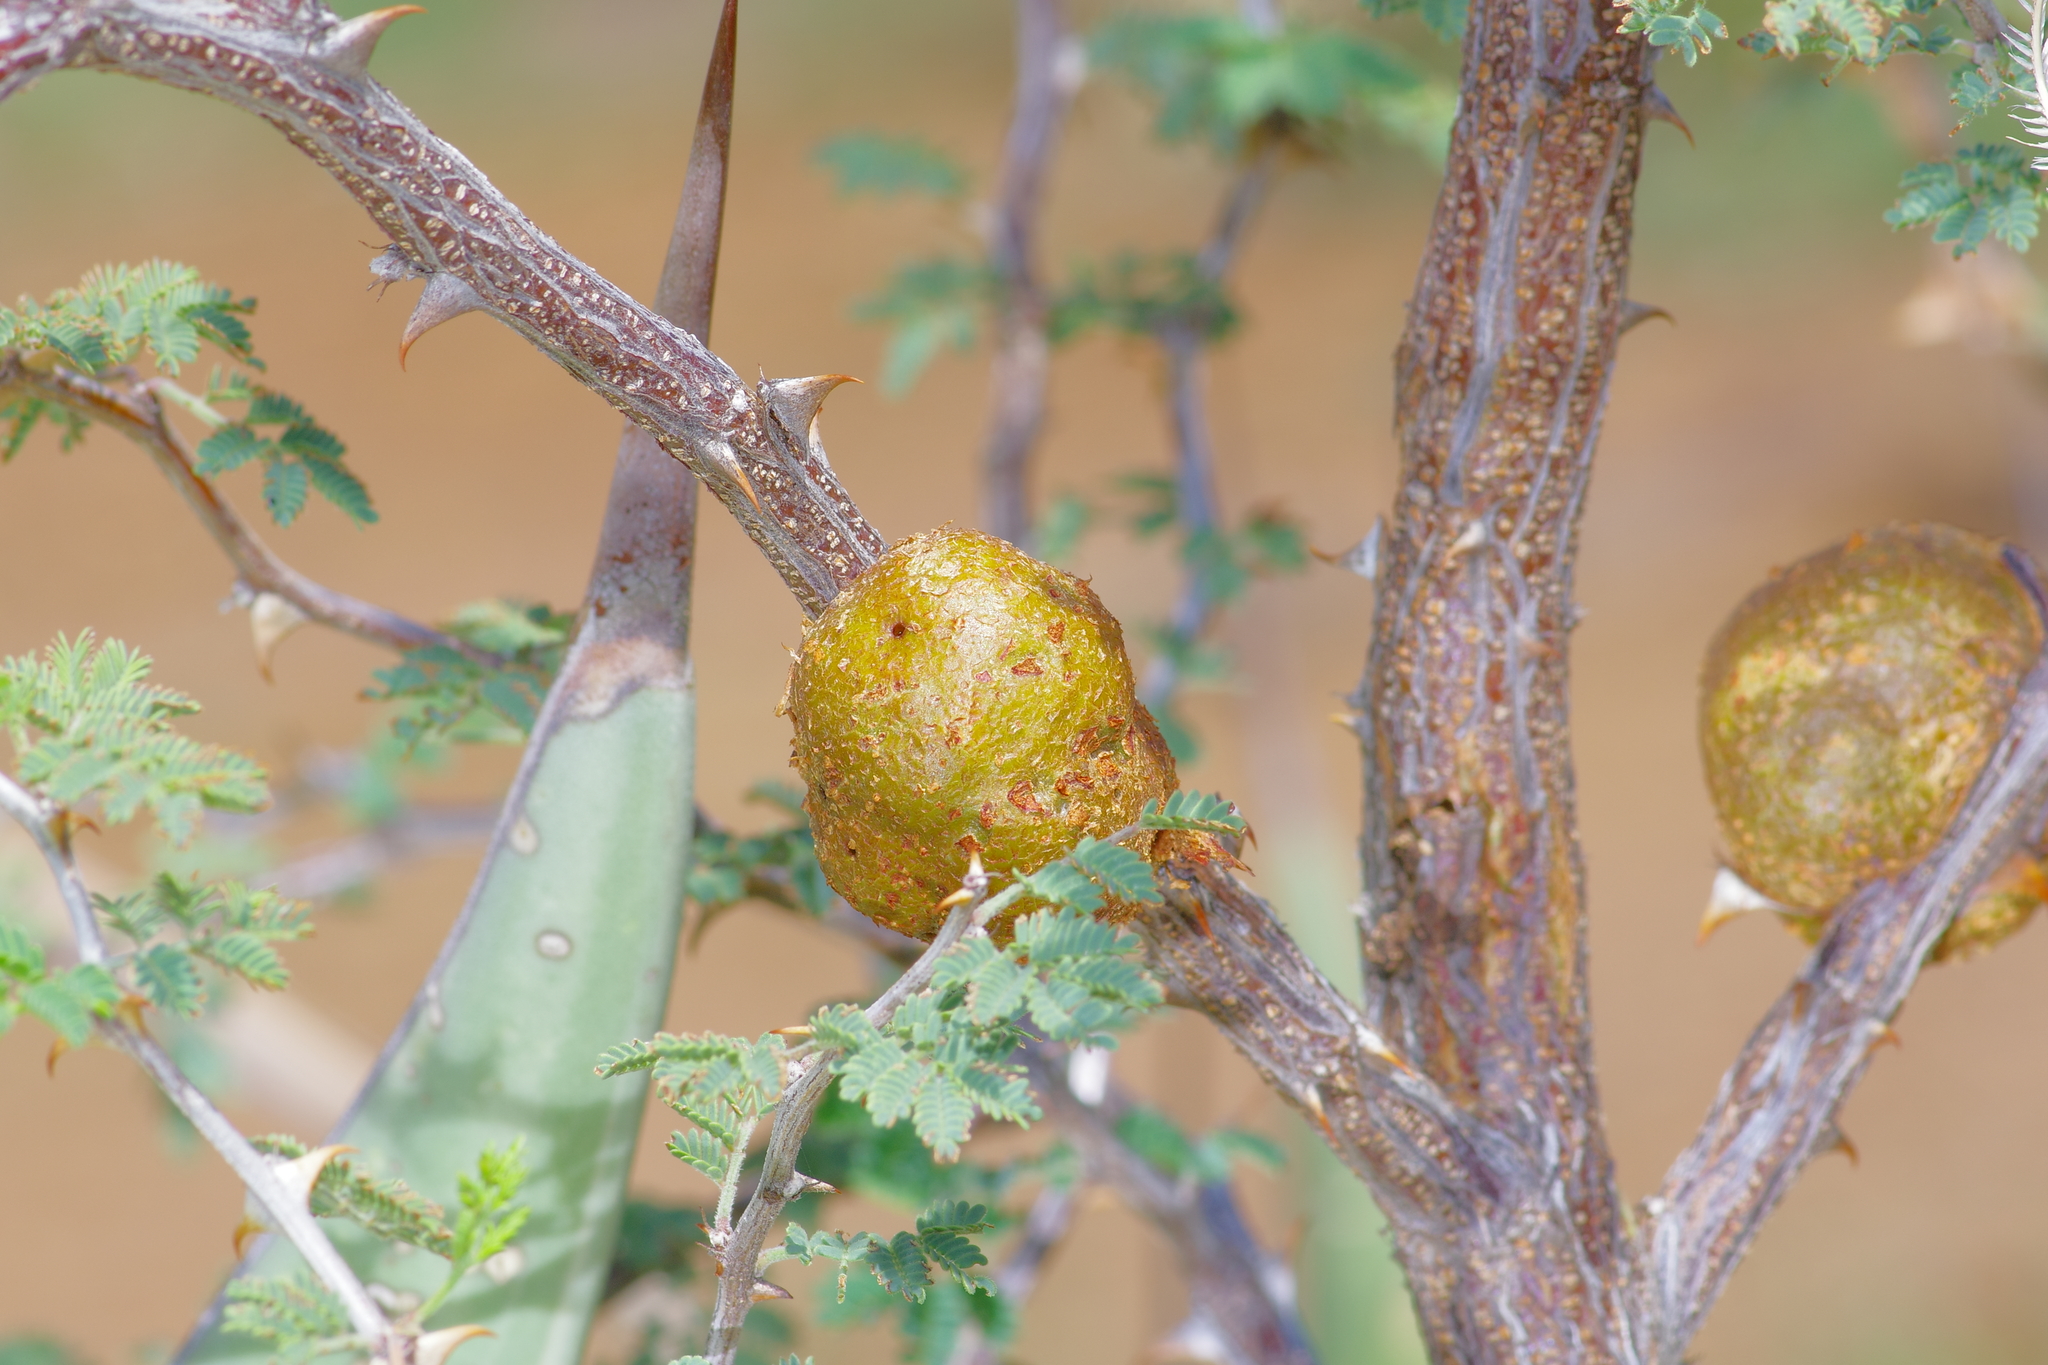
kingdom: Animalia
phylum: Arthropoda
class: Insecta
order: Hymenoptera
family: Tanaostigmatidae
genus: Tanaostigmodes
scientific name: Tanaostigmodes howardii
